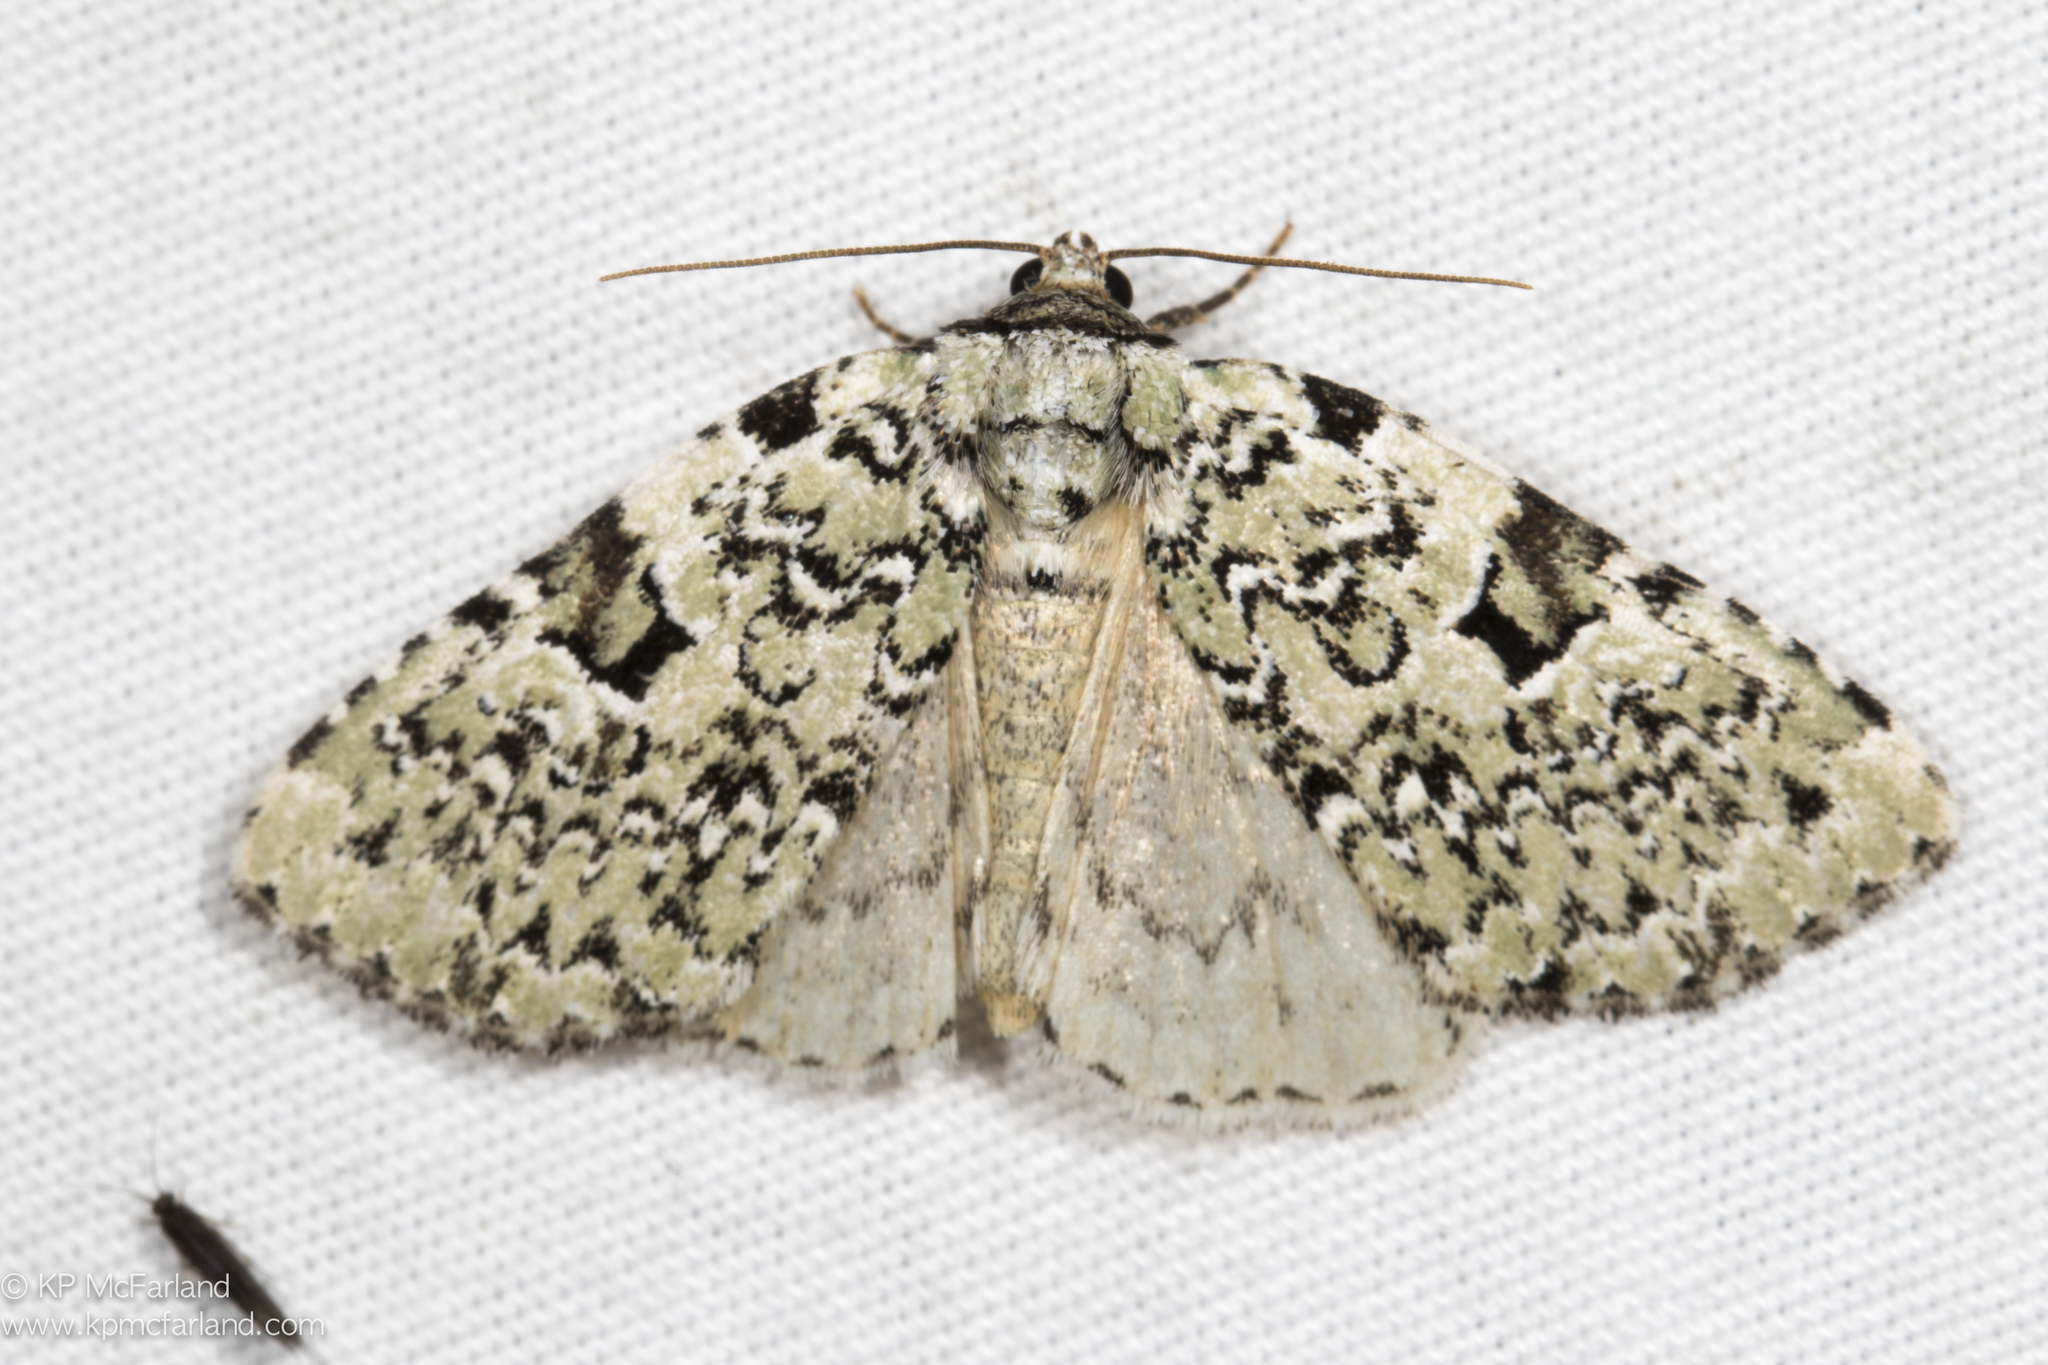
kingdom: Animalia
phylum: Arthropoda
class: Insecta
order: Lepidoptera
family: Noctuidae
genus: Leuconycta
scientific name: Leuconycta diphteroides
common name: Green leuconycta moth
